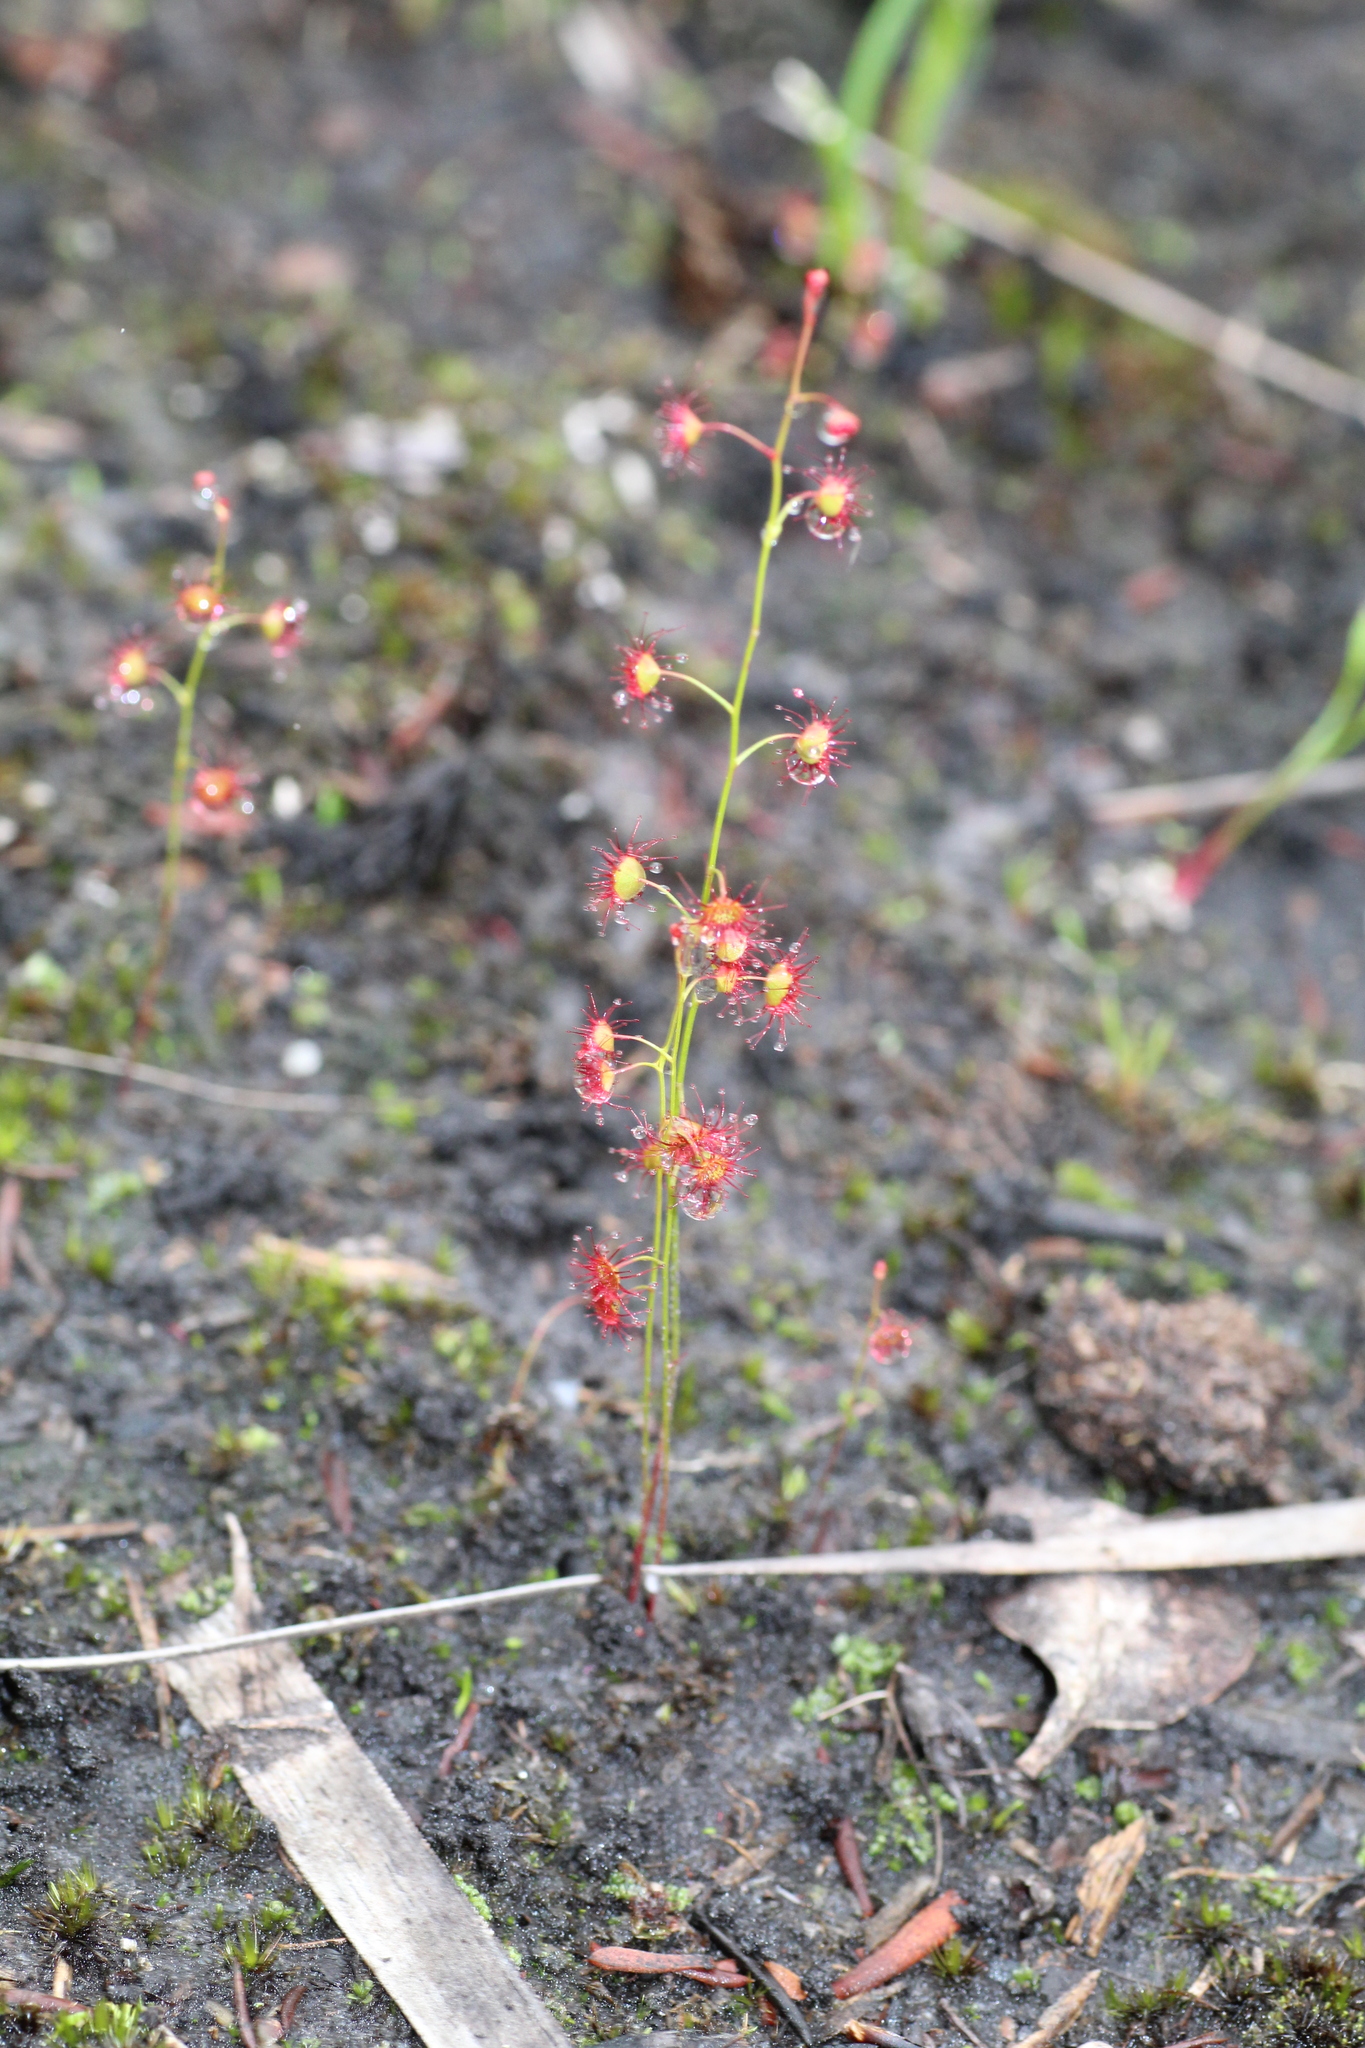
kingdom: Plantae
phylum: Tracheophyta
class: Magnoliopsida
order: Caryophyllales
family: Droseraceae
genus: Drosera
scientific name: Drosera microphylla
